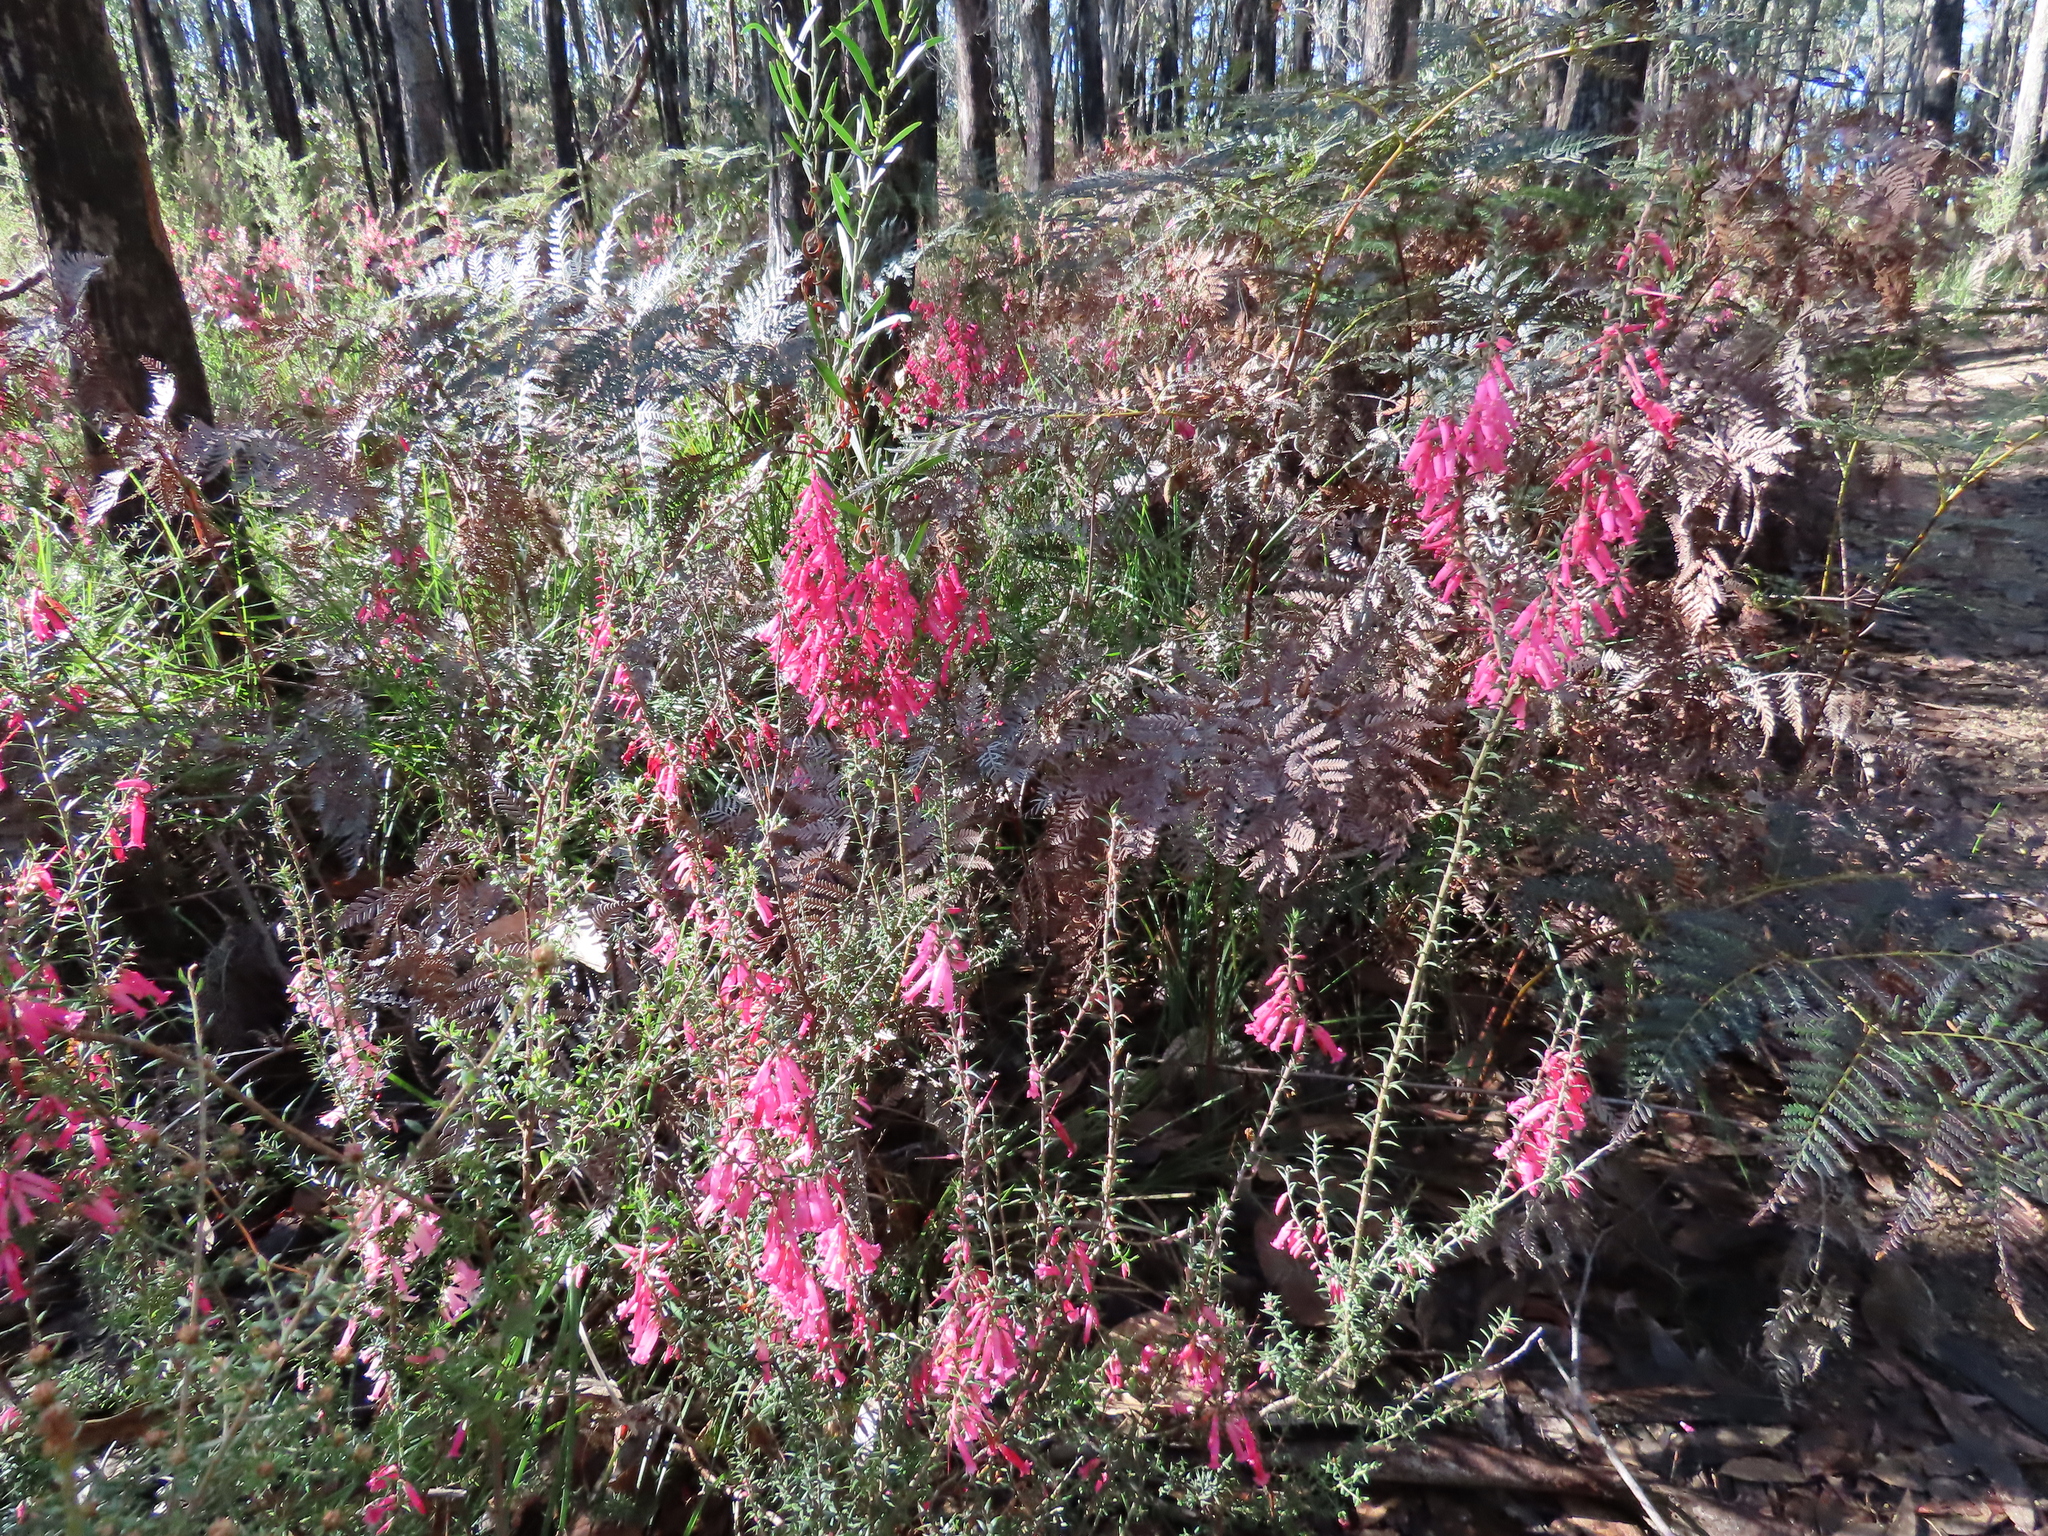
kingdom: Plantae
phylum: Tracheophyta
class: Magnoliopsida
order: Ericales
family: Ericaceae
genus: Epacris
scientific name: Epacris impressa
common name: Common-heath
